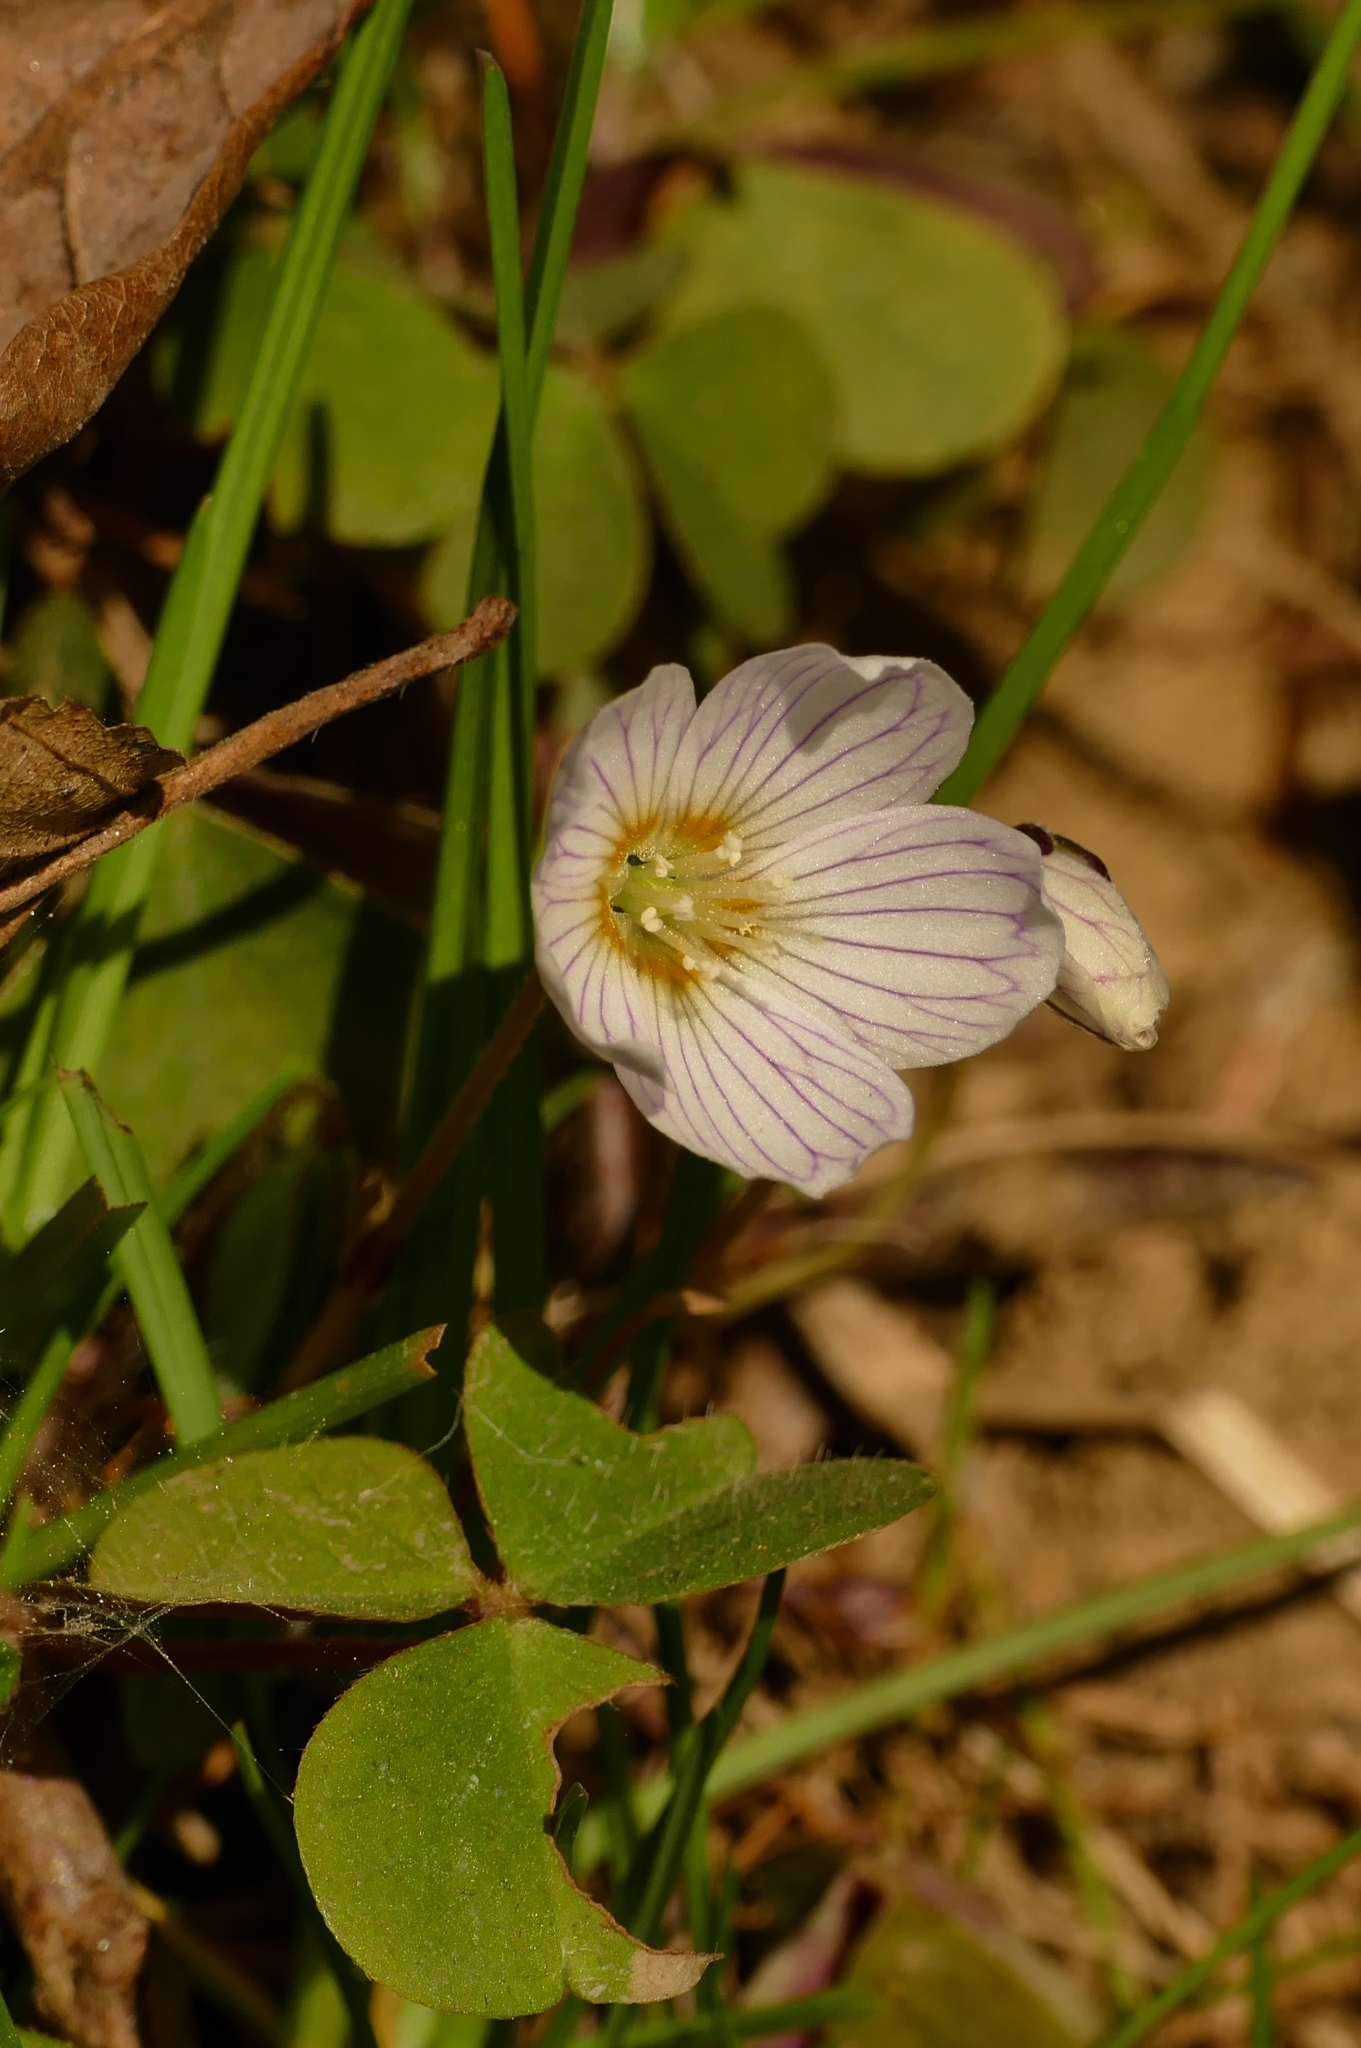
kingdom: Plantae
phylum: Tracheophyta
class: Magnoliopsida
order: Oxalidales
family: Oxalidaceae
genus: Oxalis
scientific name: Oxalis acetosella
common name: Wood-sorrel
